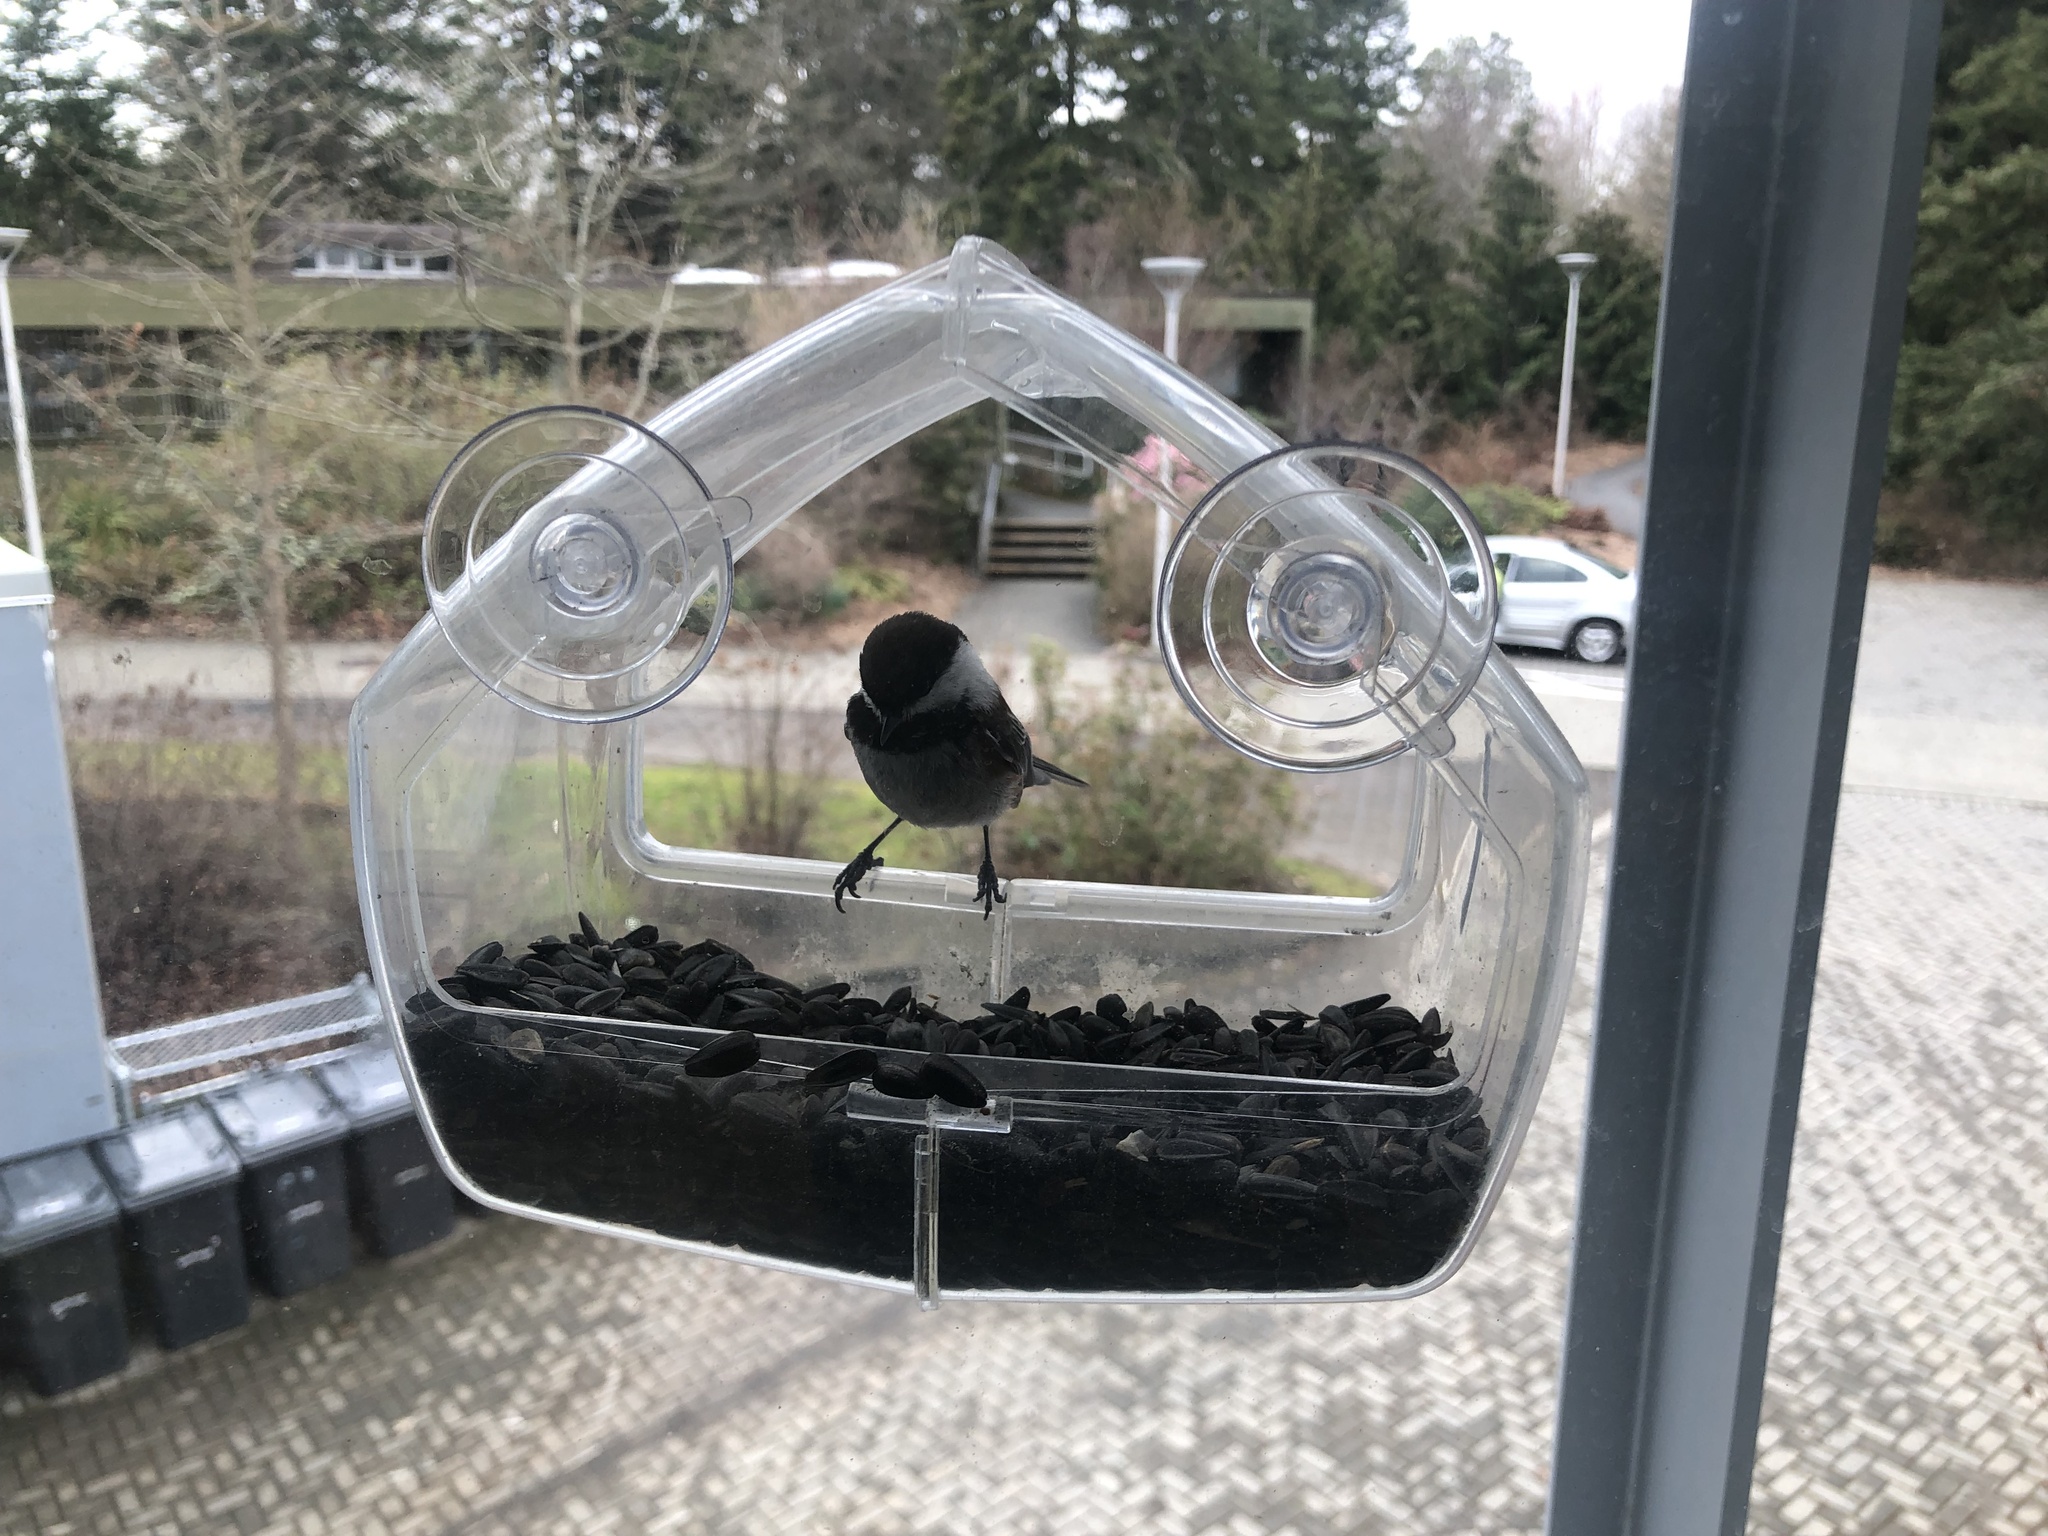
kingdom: Animalia
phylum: Chordata
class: Aves
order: Passeriformes
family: Paridae
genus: Poecile
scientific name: Poecile rufescens
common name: Chestnut-backed chickadee
